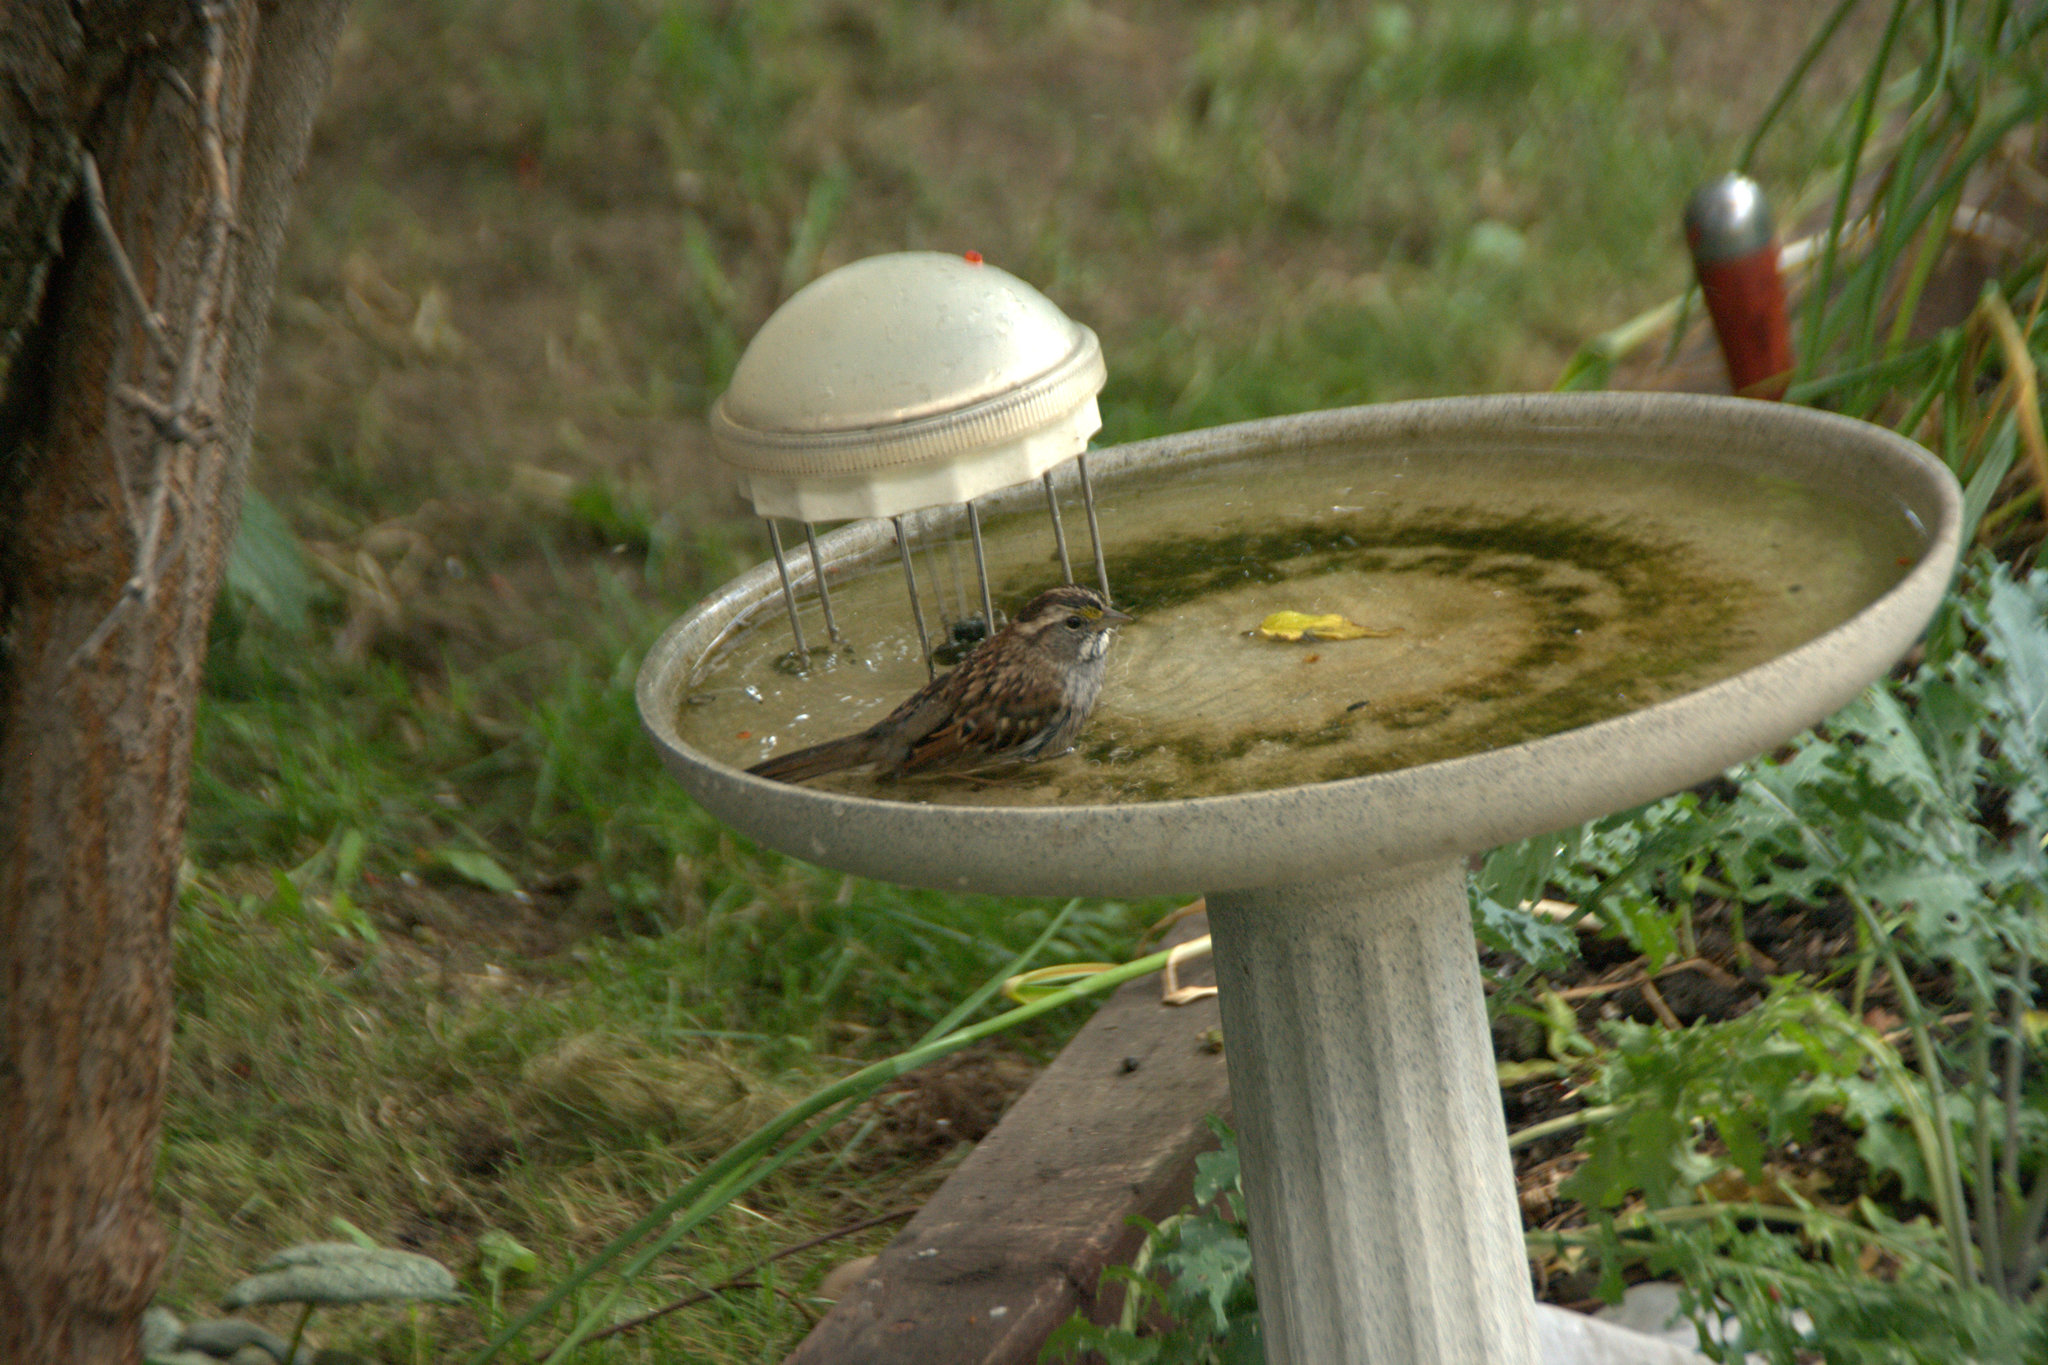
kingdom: Animalia
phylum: Chordata
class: Aves
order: Passeriformes
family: Passerellidae
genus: Zonotrichia
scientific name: Zonotrichia albicollis
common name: White-throated sparrow
